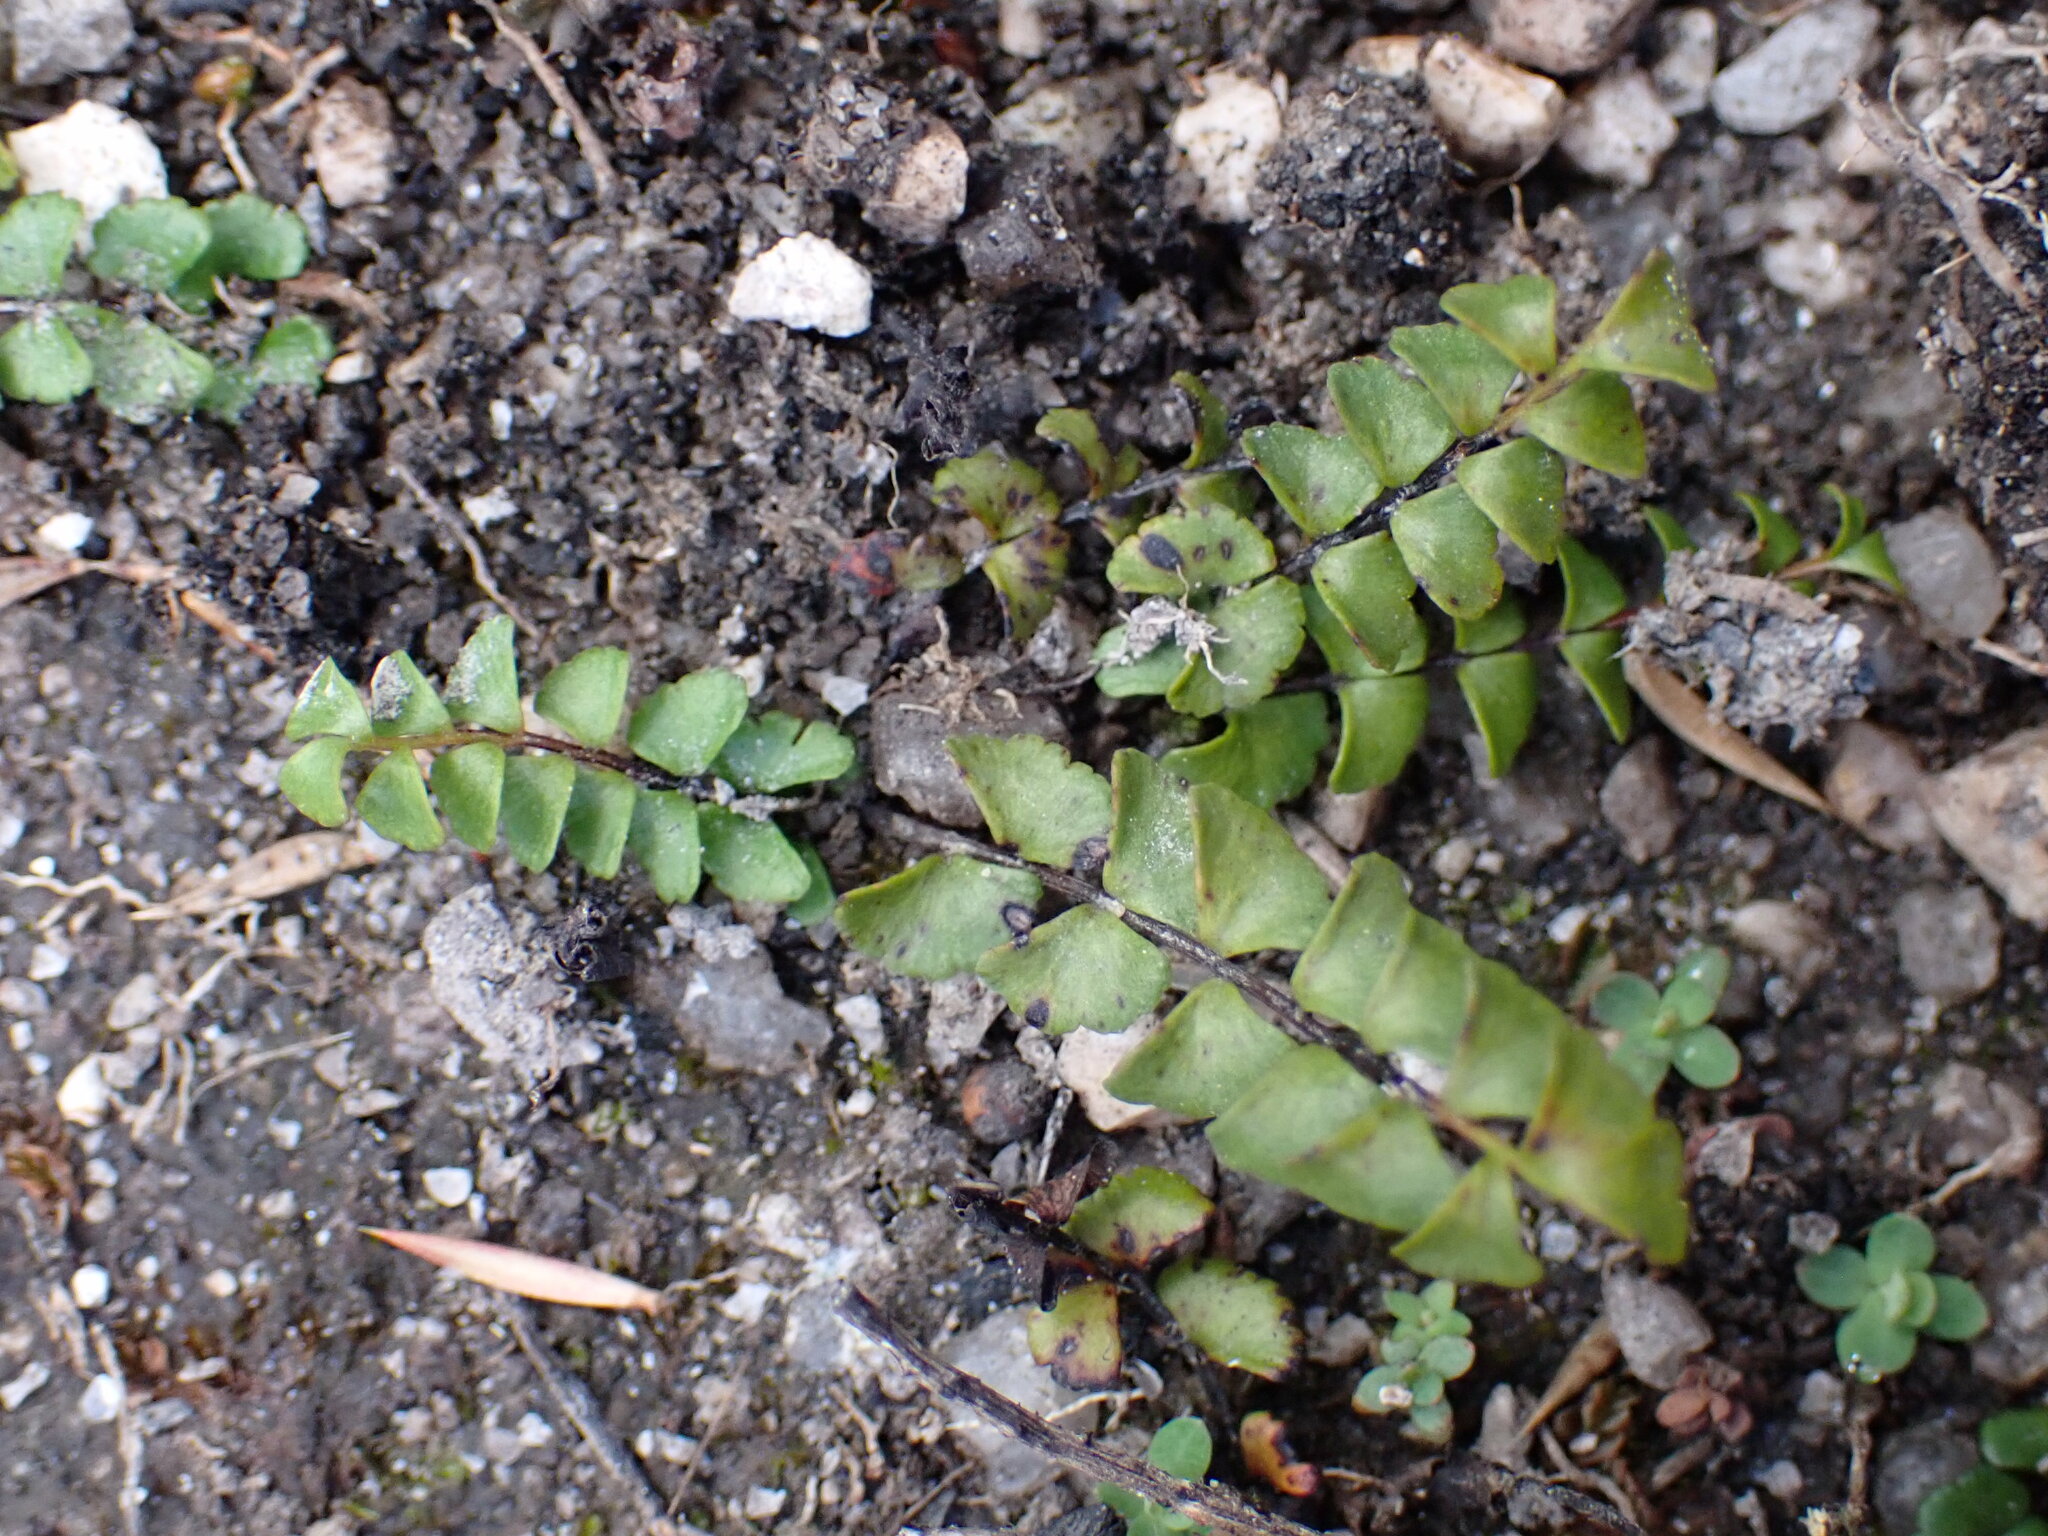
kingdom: Plantae
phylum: Tracheophyta
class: Polypodiopsida
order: Polypodiales
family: Lindsaeaceae
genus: Lindsaea
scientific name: Lindsaea linearis
